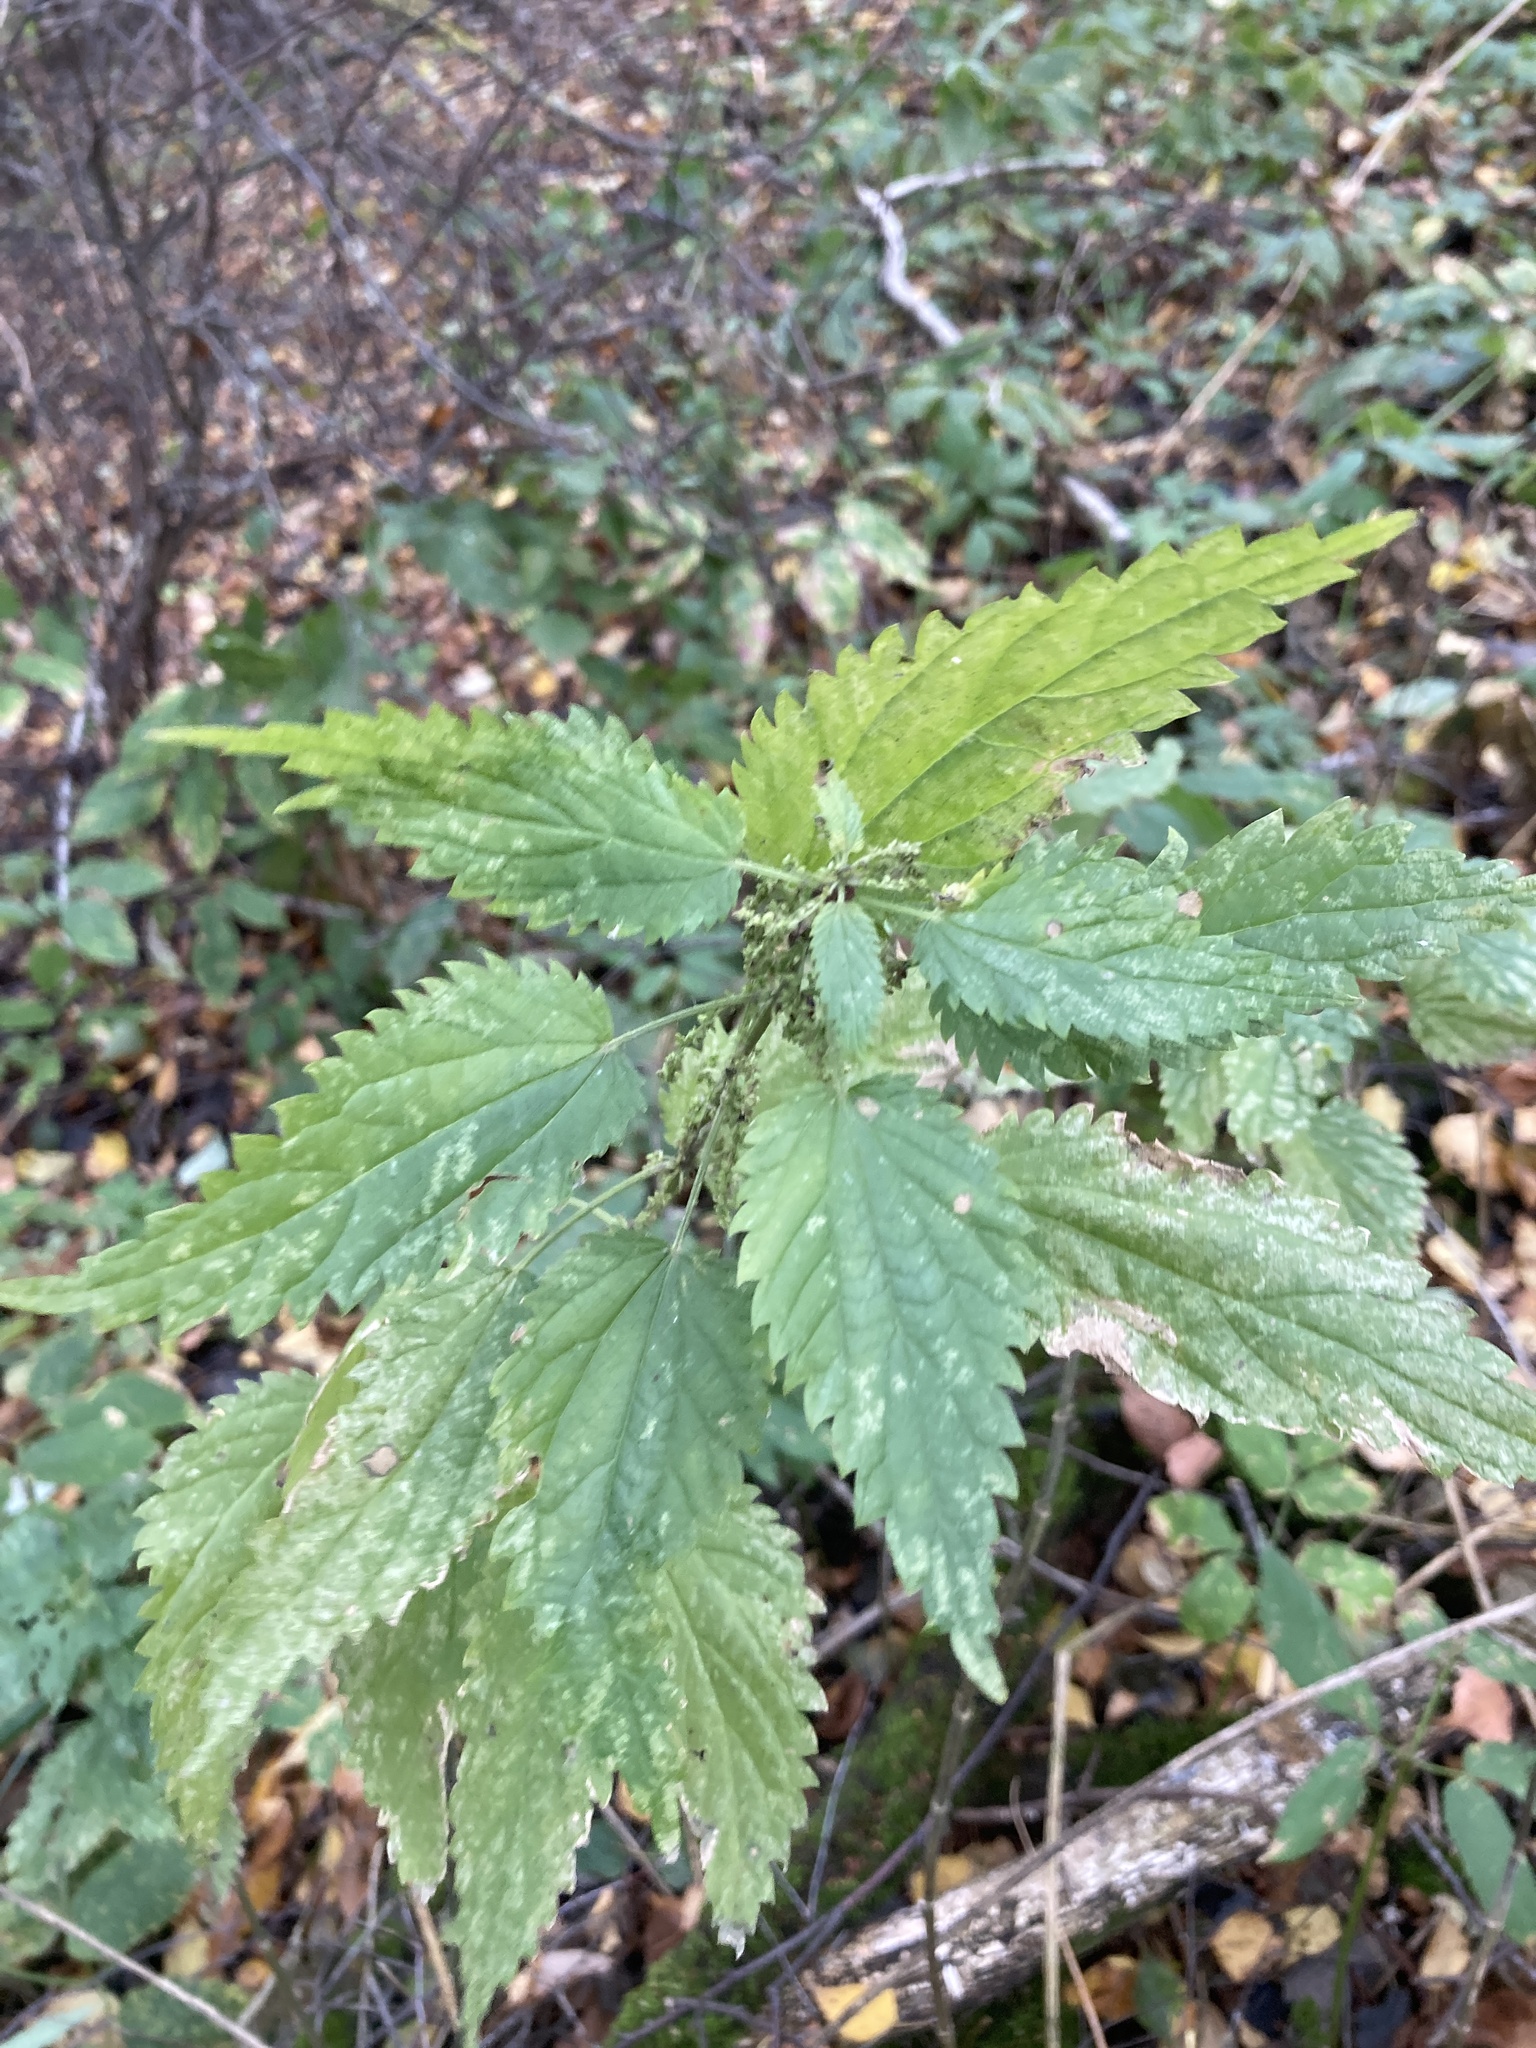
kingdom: Plantae
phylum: Tracheophyta
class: Magnoliopsida
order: Rosales
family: Urticaceae
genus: Urtica
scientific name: Urtica dioica
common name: Common nettle
